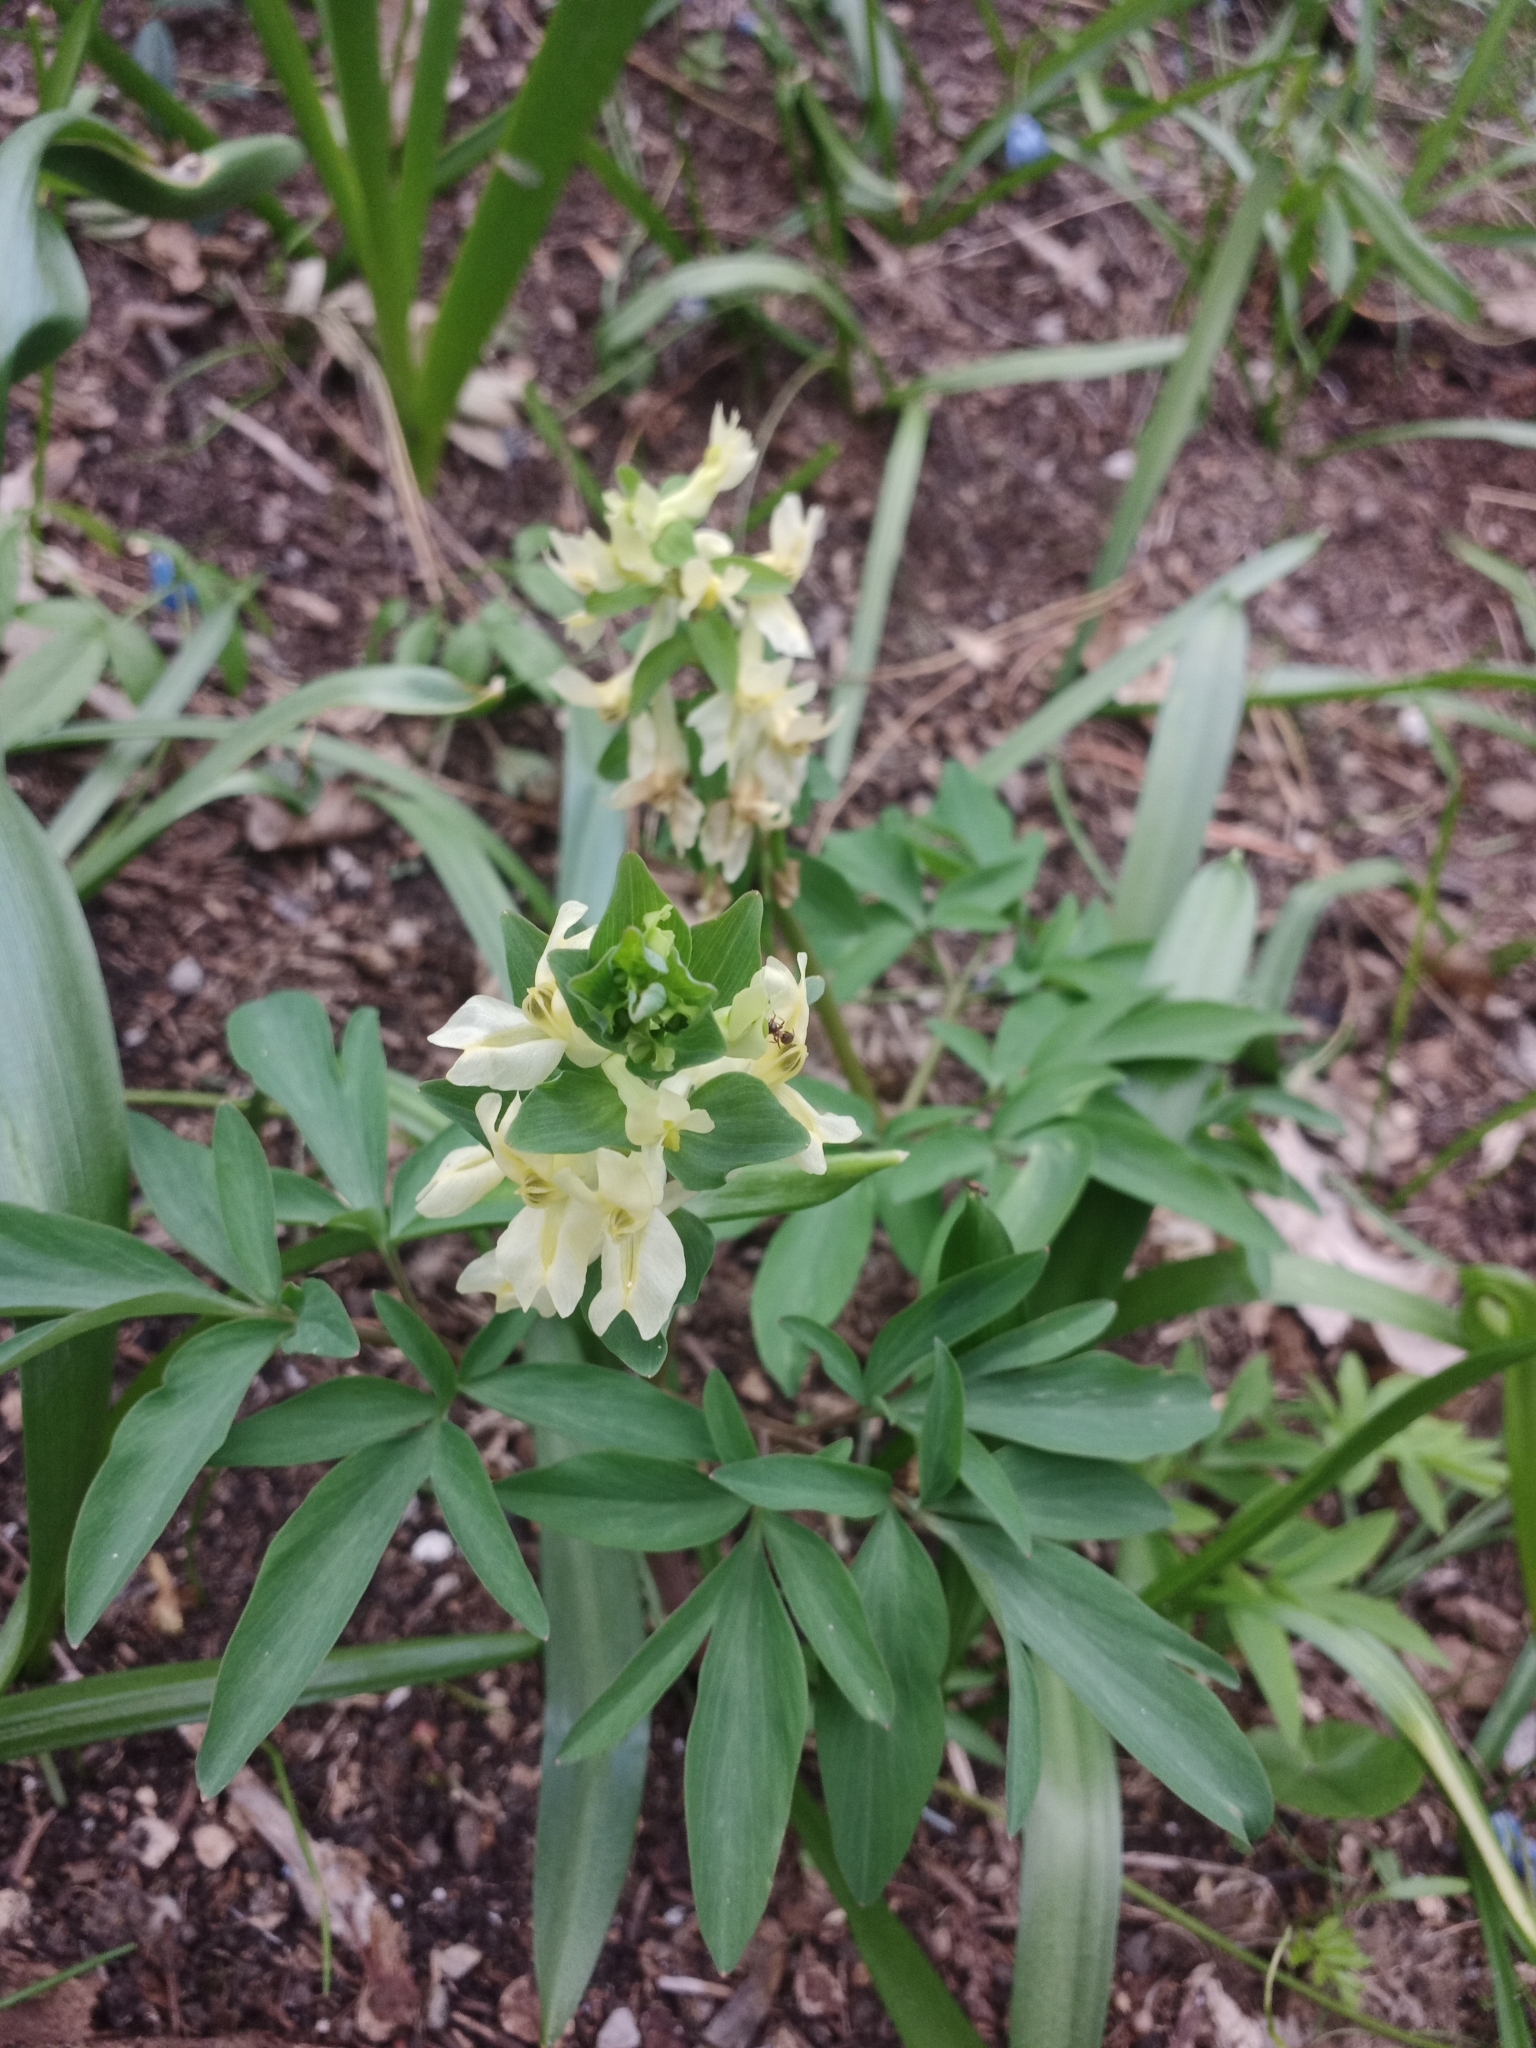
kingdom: Plantae
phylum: Tracheophyta
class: Magnoliopsida
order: Ranunculales
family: Papaveraceae
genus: Corydalis
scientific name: Corydalis cava
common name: Hollowroot
